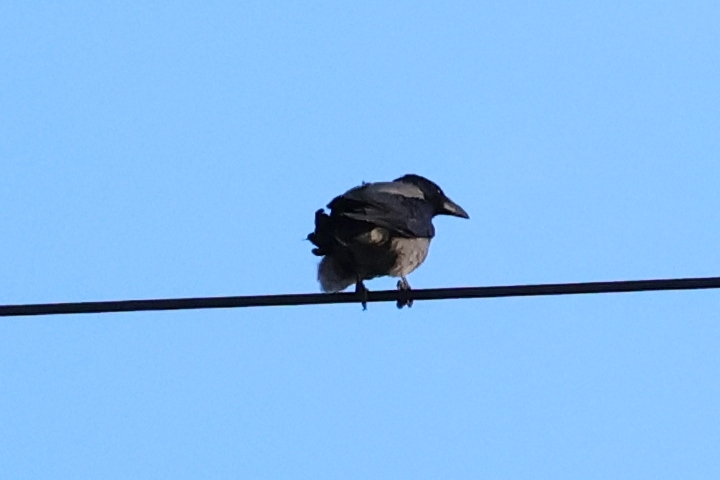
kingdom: Animalia
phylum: Chordata
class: Aves
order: Passeriformes
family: Corvidae
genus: Corvus
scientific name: Corvus cornix
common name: Hooded crow
